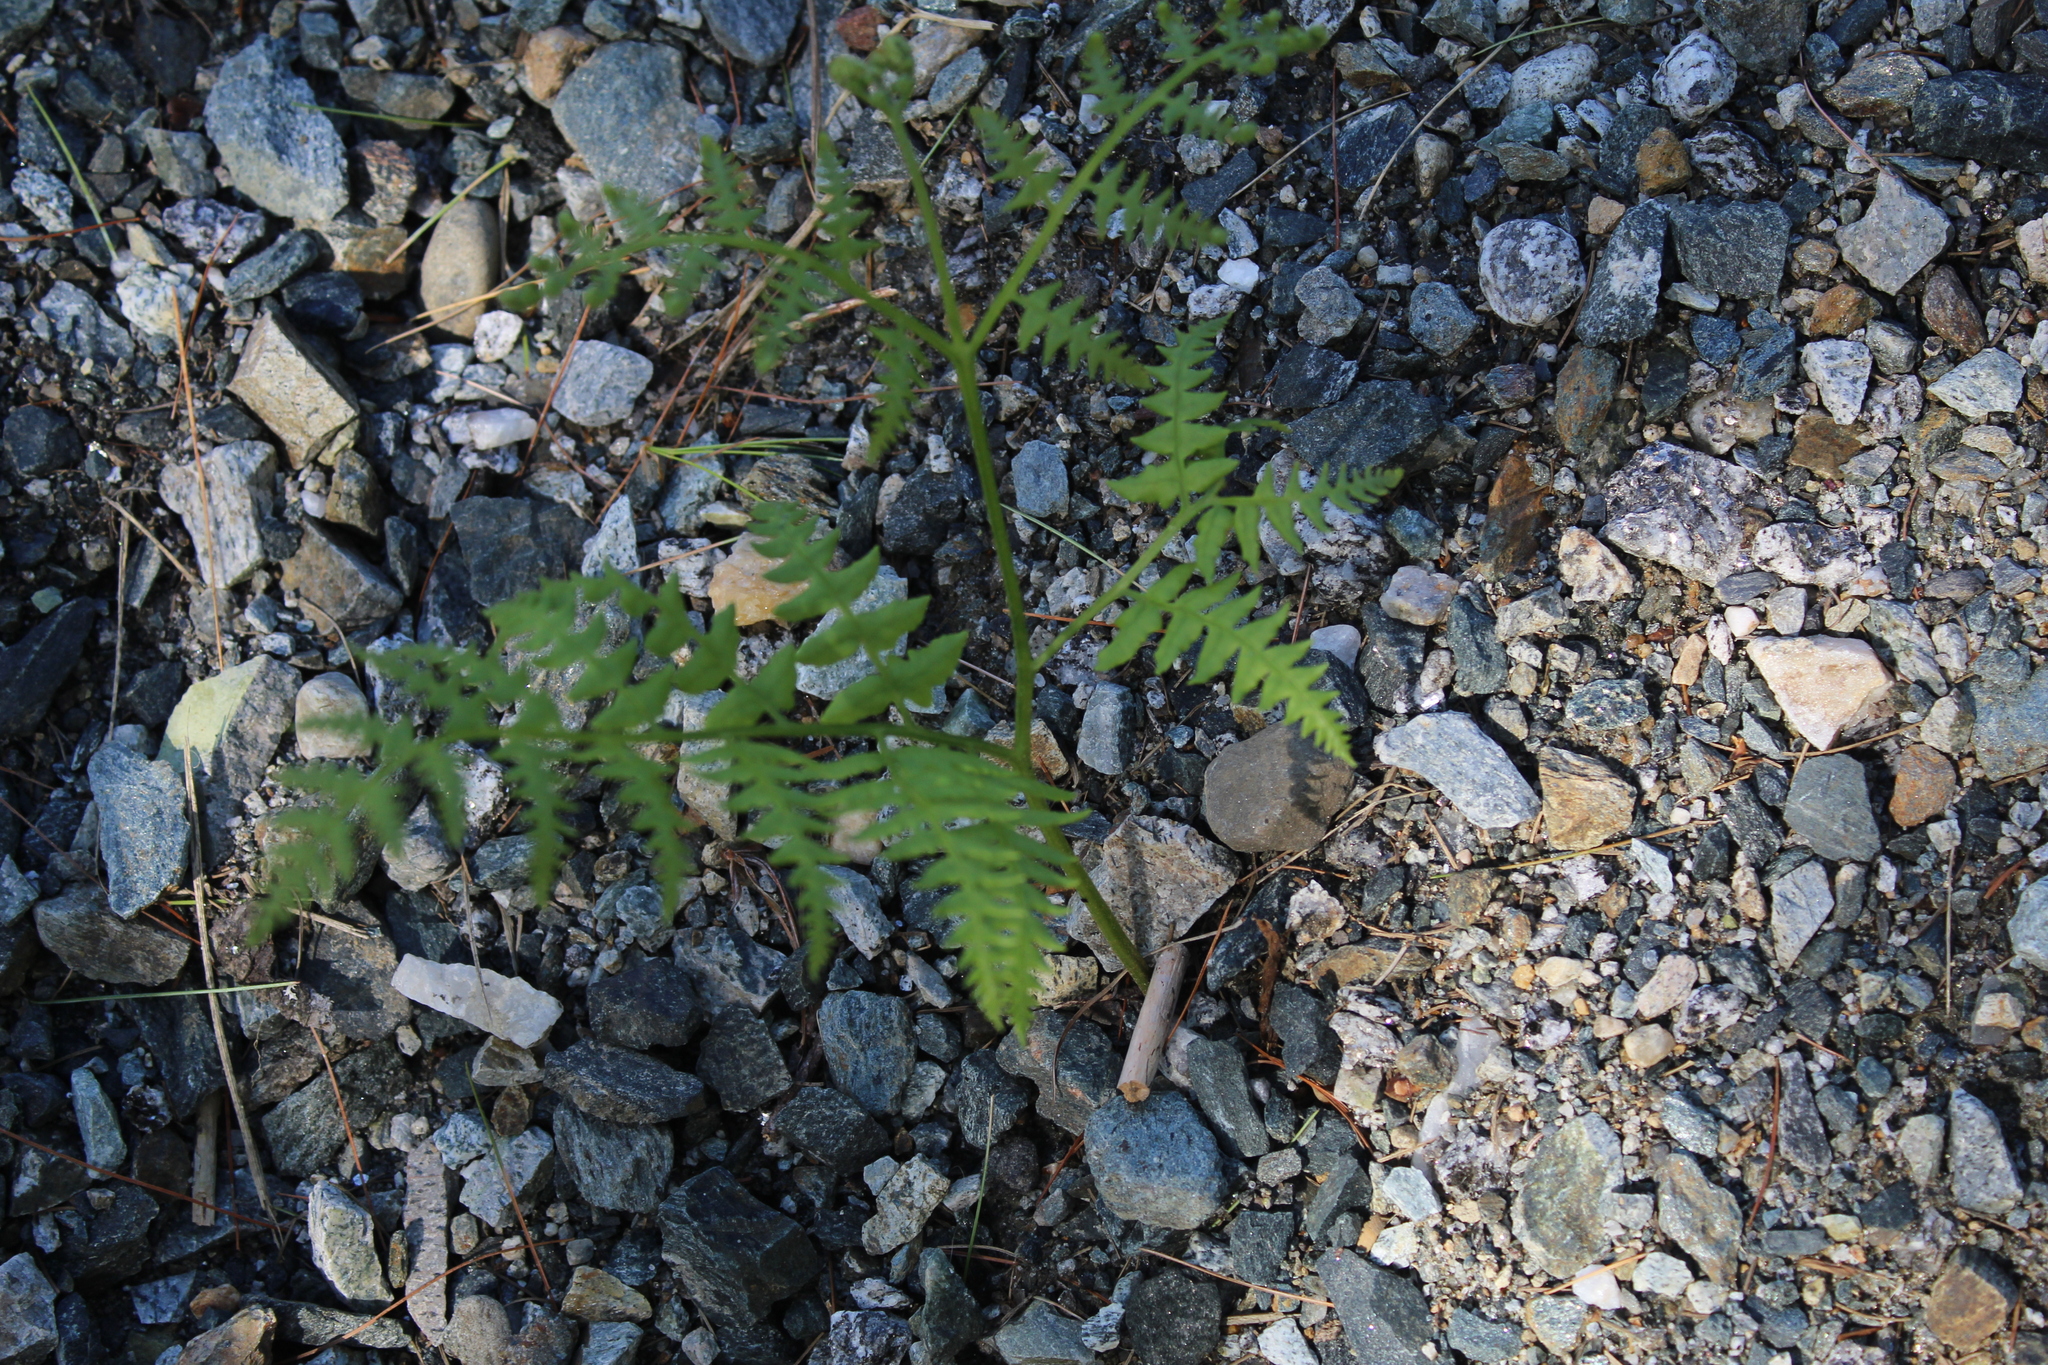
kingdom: Plantae
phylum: Tracheophyta
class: Polypodiopsida
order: Polypodiales
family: Dennstaedtiaceae
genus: Pteridium
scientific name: Pteridium aquilinum
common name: Bracken
